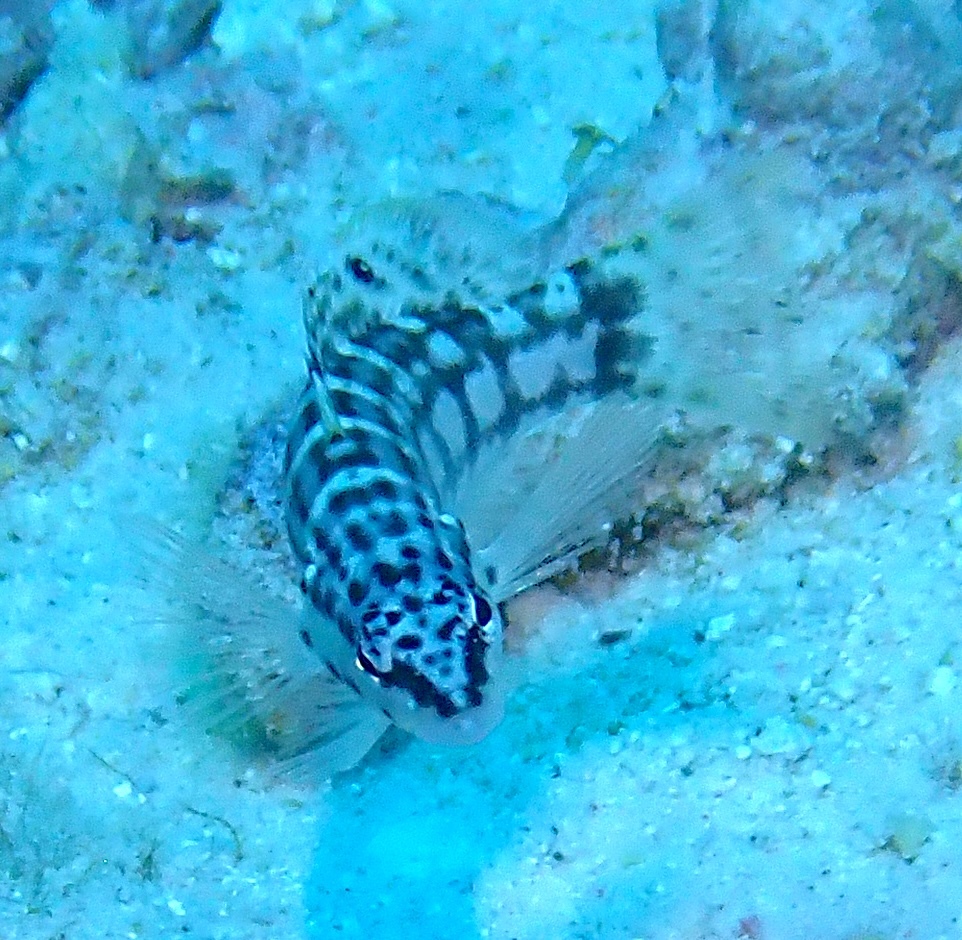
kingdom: Animalia
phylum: Chordata
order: Perciformes
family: Serranidae
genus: Serranus
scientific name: Serranus tigrinus
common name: Harlequin bass
